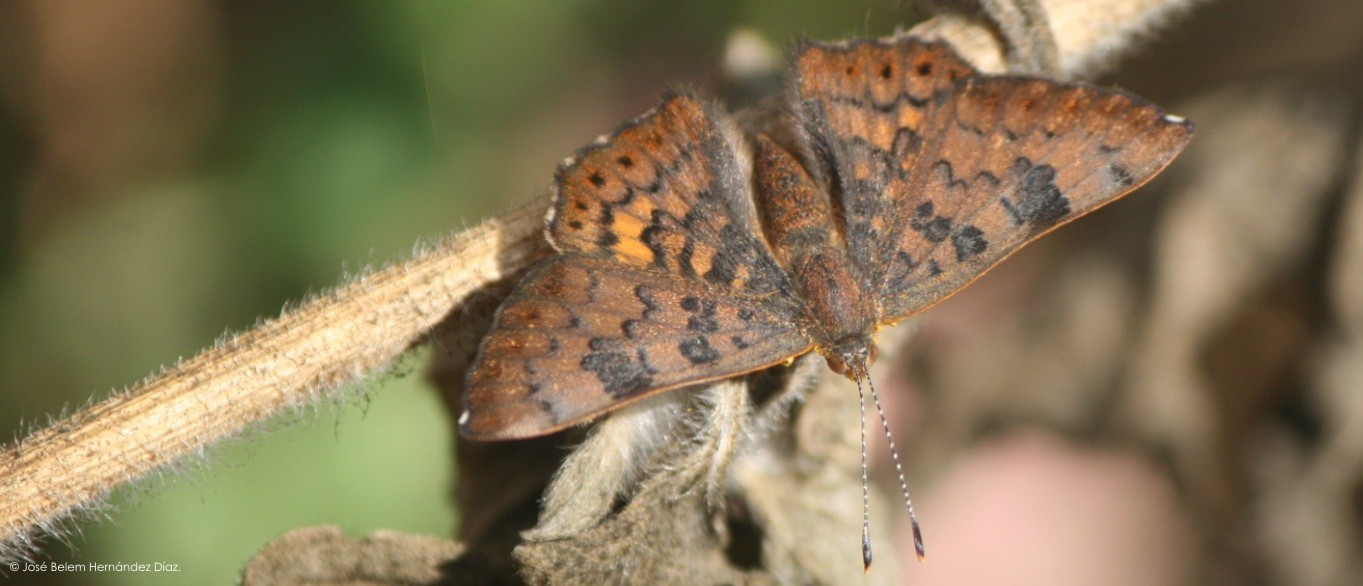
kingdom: Animalia
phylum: Arthropoda
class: Insecta
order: Lepidoptera
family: Riodinidae
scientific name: Riodinidae
